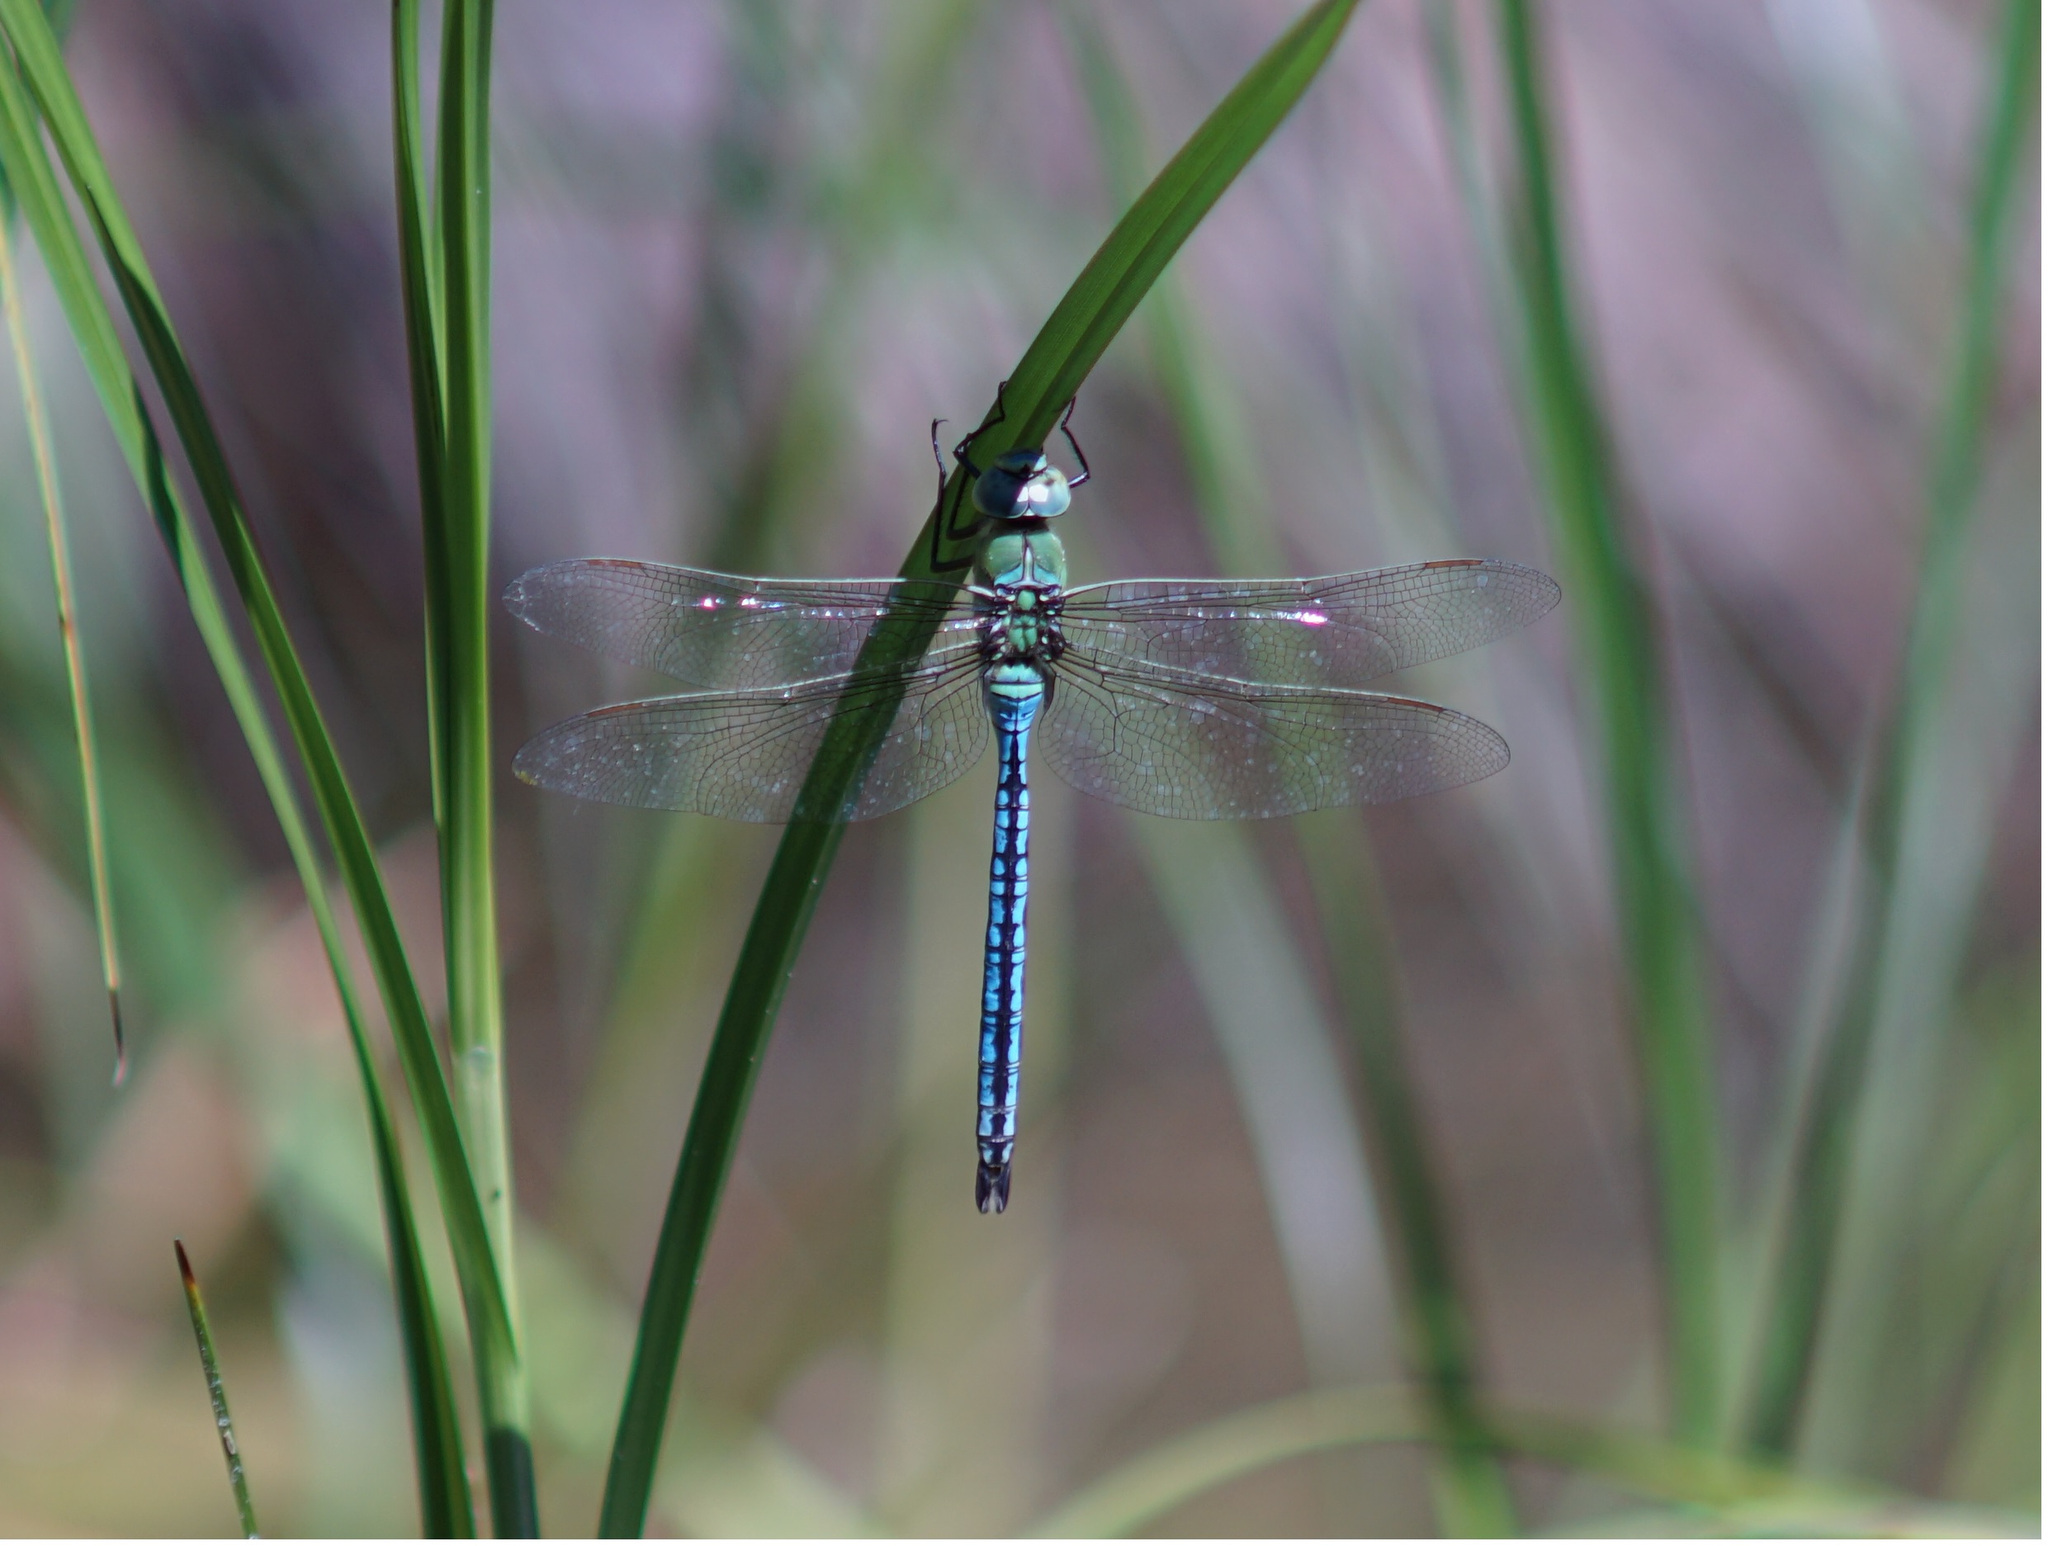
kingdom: Animalia
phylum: Arthropoda
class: Insecta
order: Odonata
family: Aeshnidae
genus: Anax
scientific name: Anax imperator
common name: Emperor dragonfly
